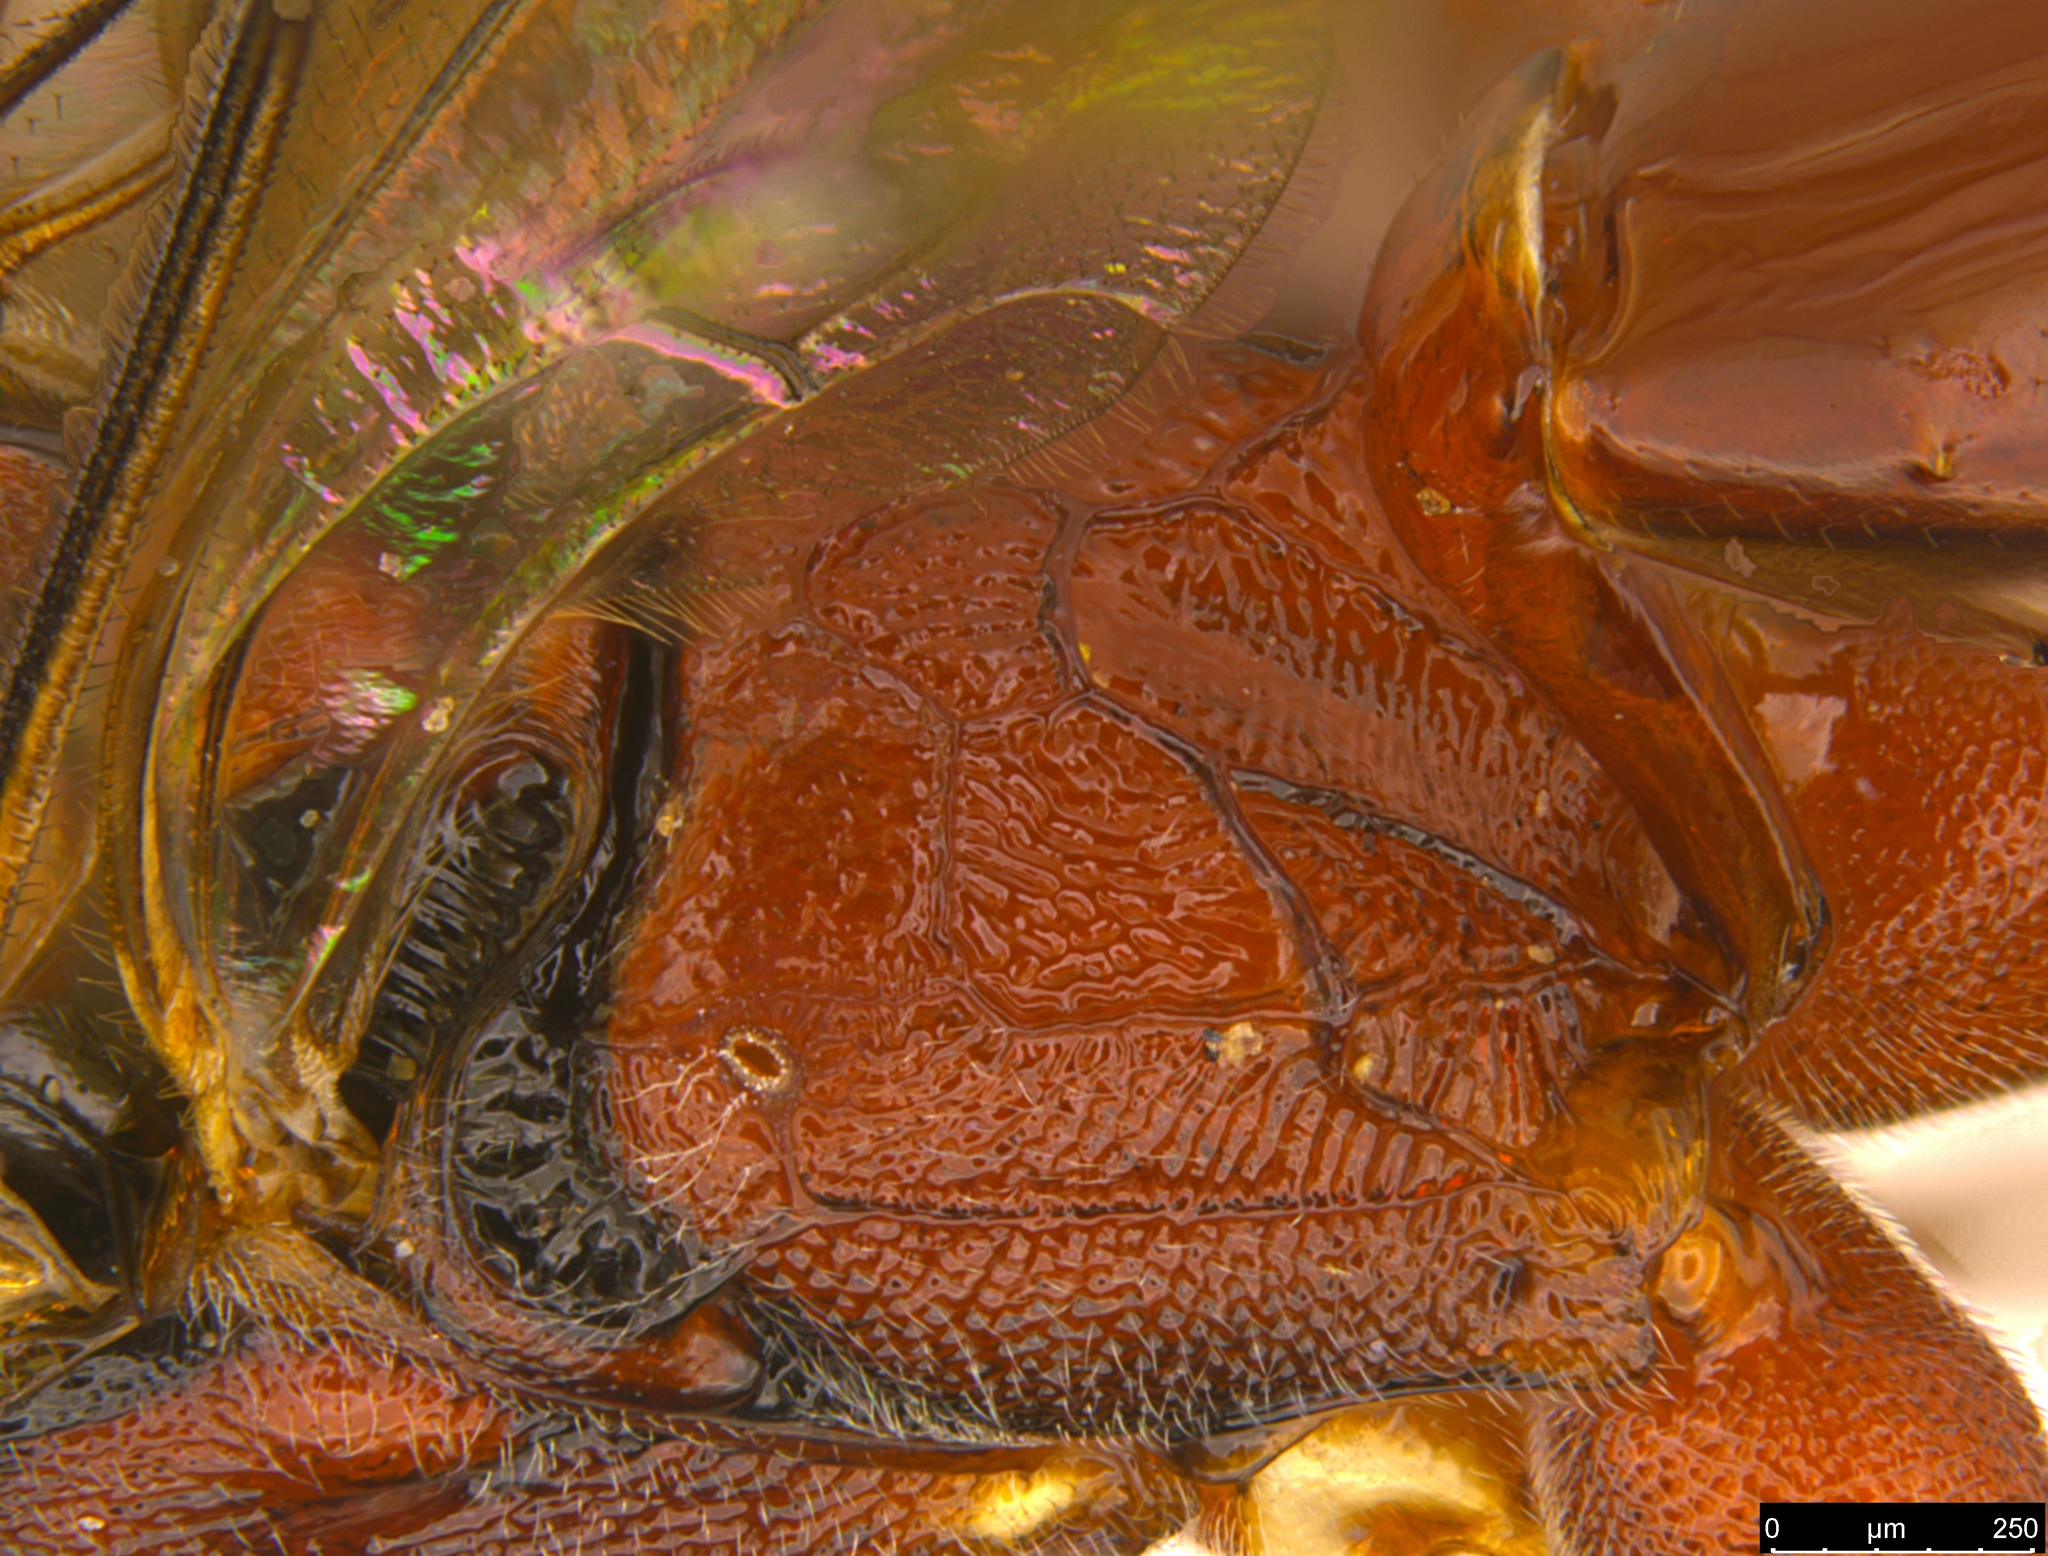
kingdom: Animalia
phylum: Arthropoda
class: Insecta
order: Hymenoptera
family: Ichneumonidae
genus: Akymichneumon
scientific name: Akymichneumon rufipes
